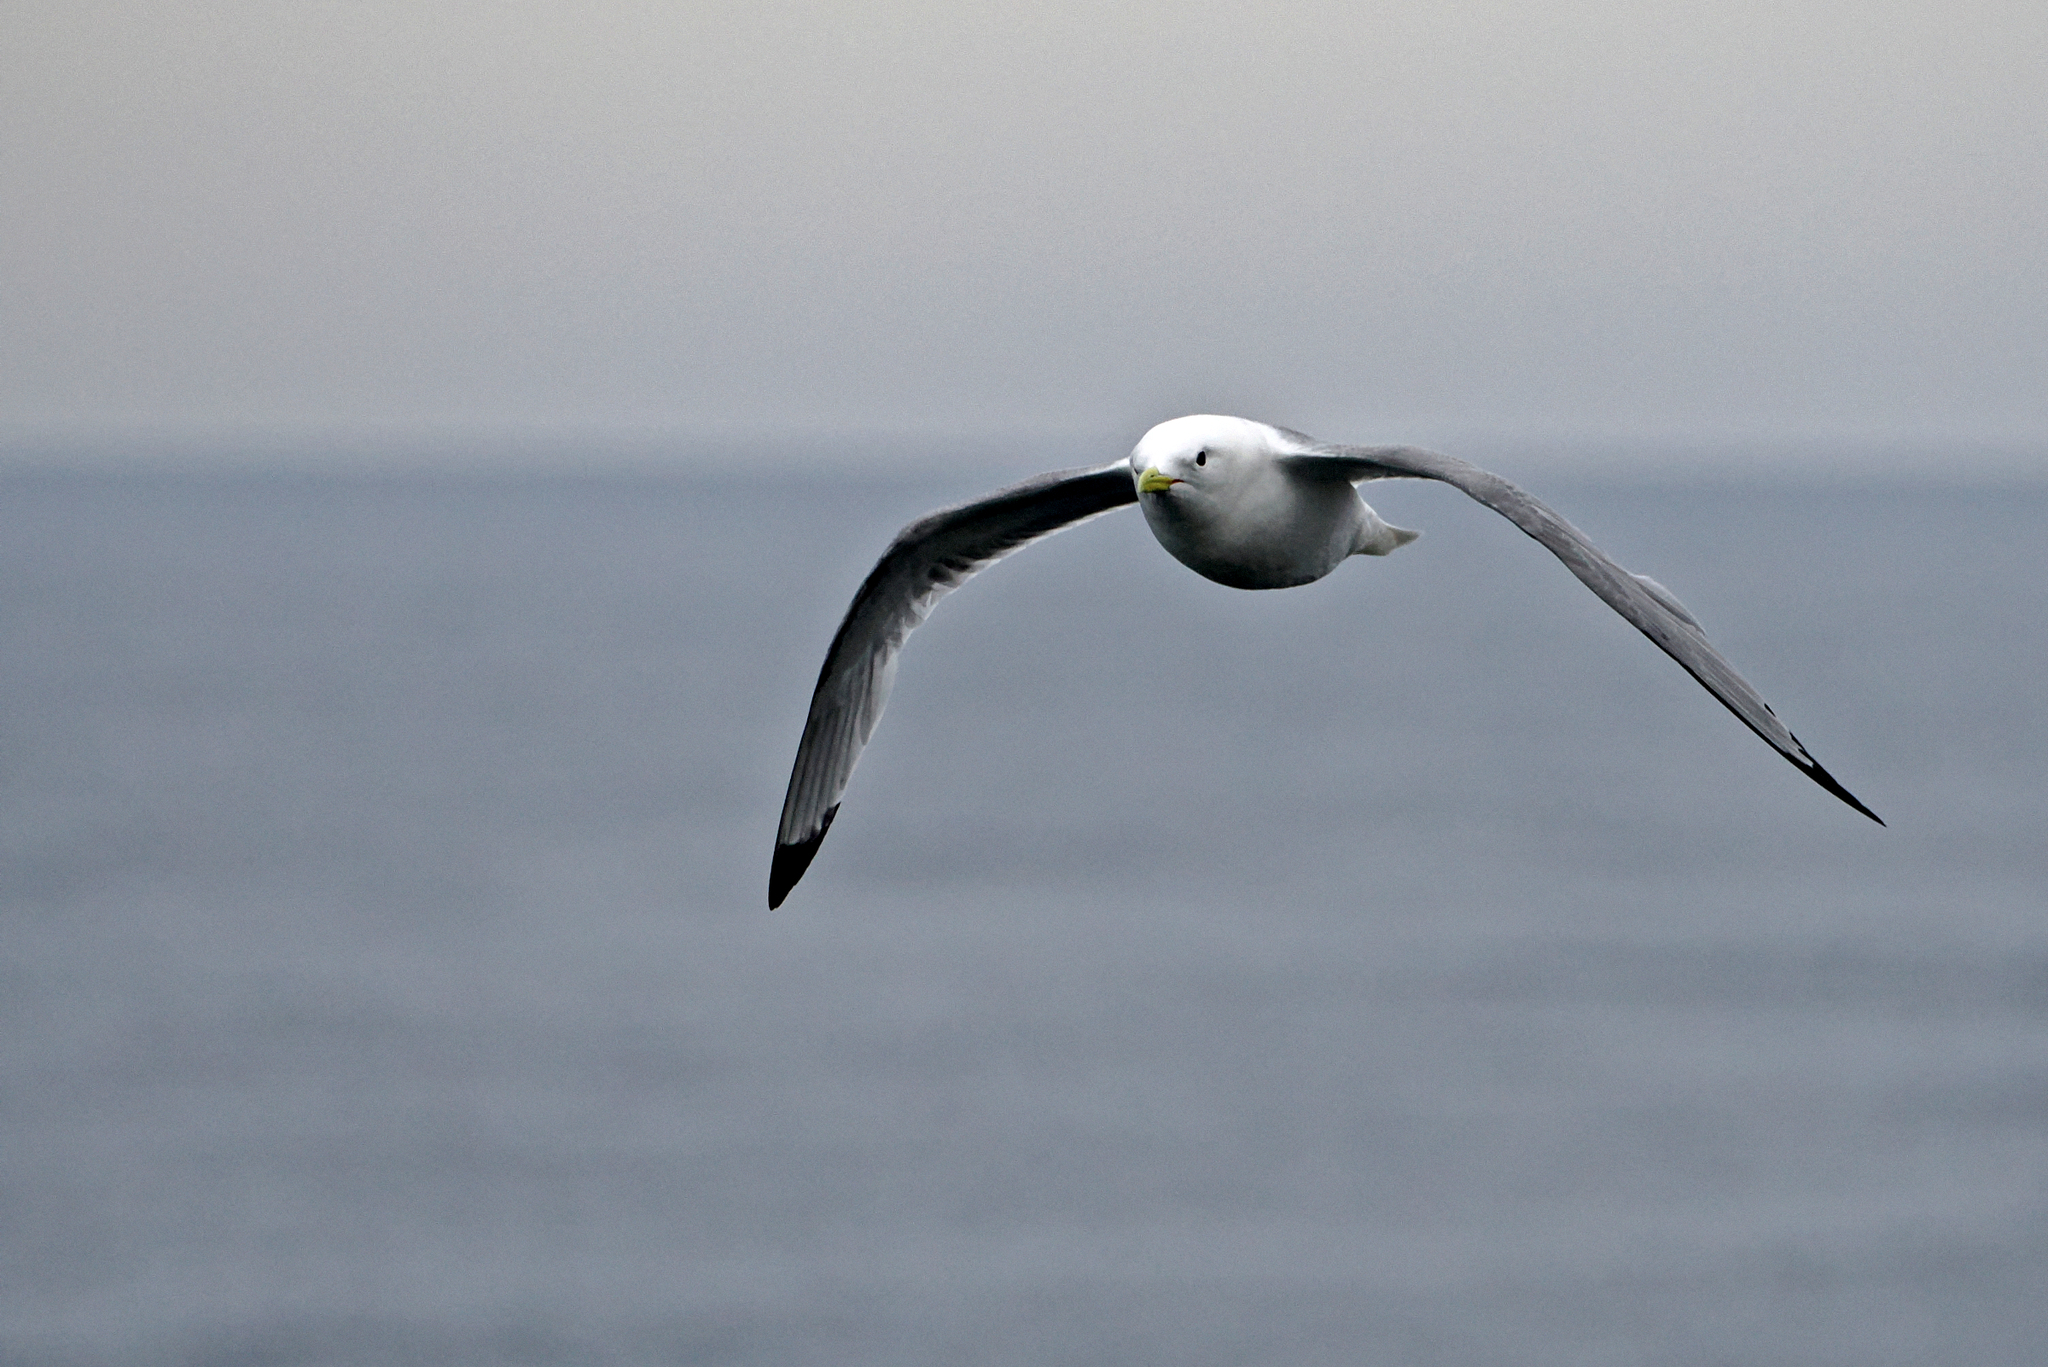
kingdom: Animalia
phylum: Chordata
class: Aves
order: Charadriiformes
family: Laridae
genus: Rissa
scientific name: Rissa tridactyla
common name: Black-legged kittiwake
